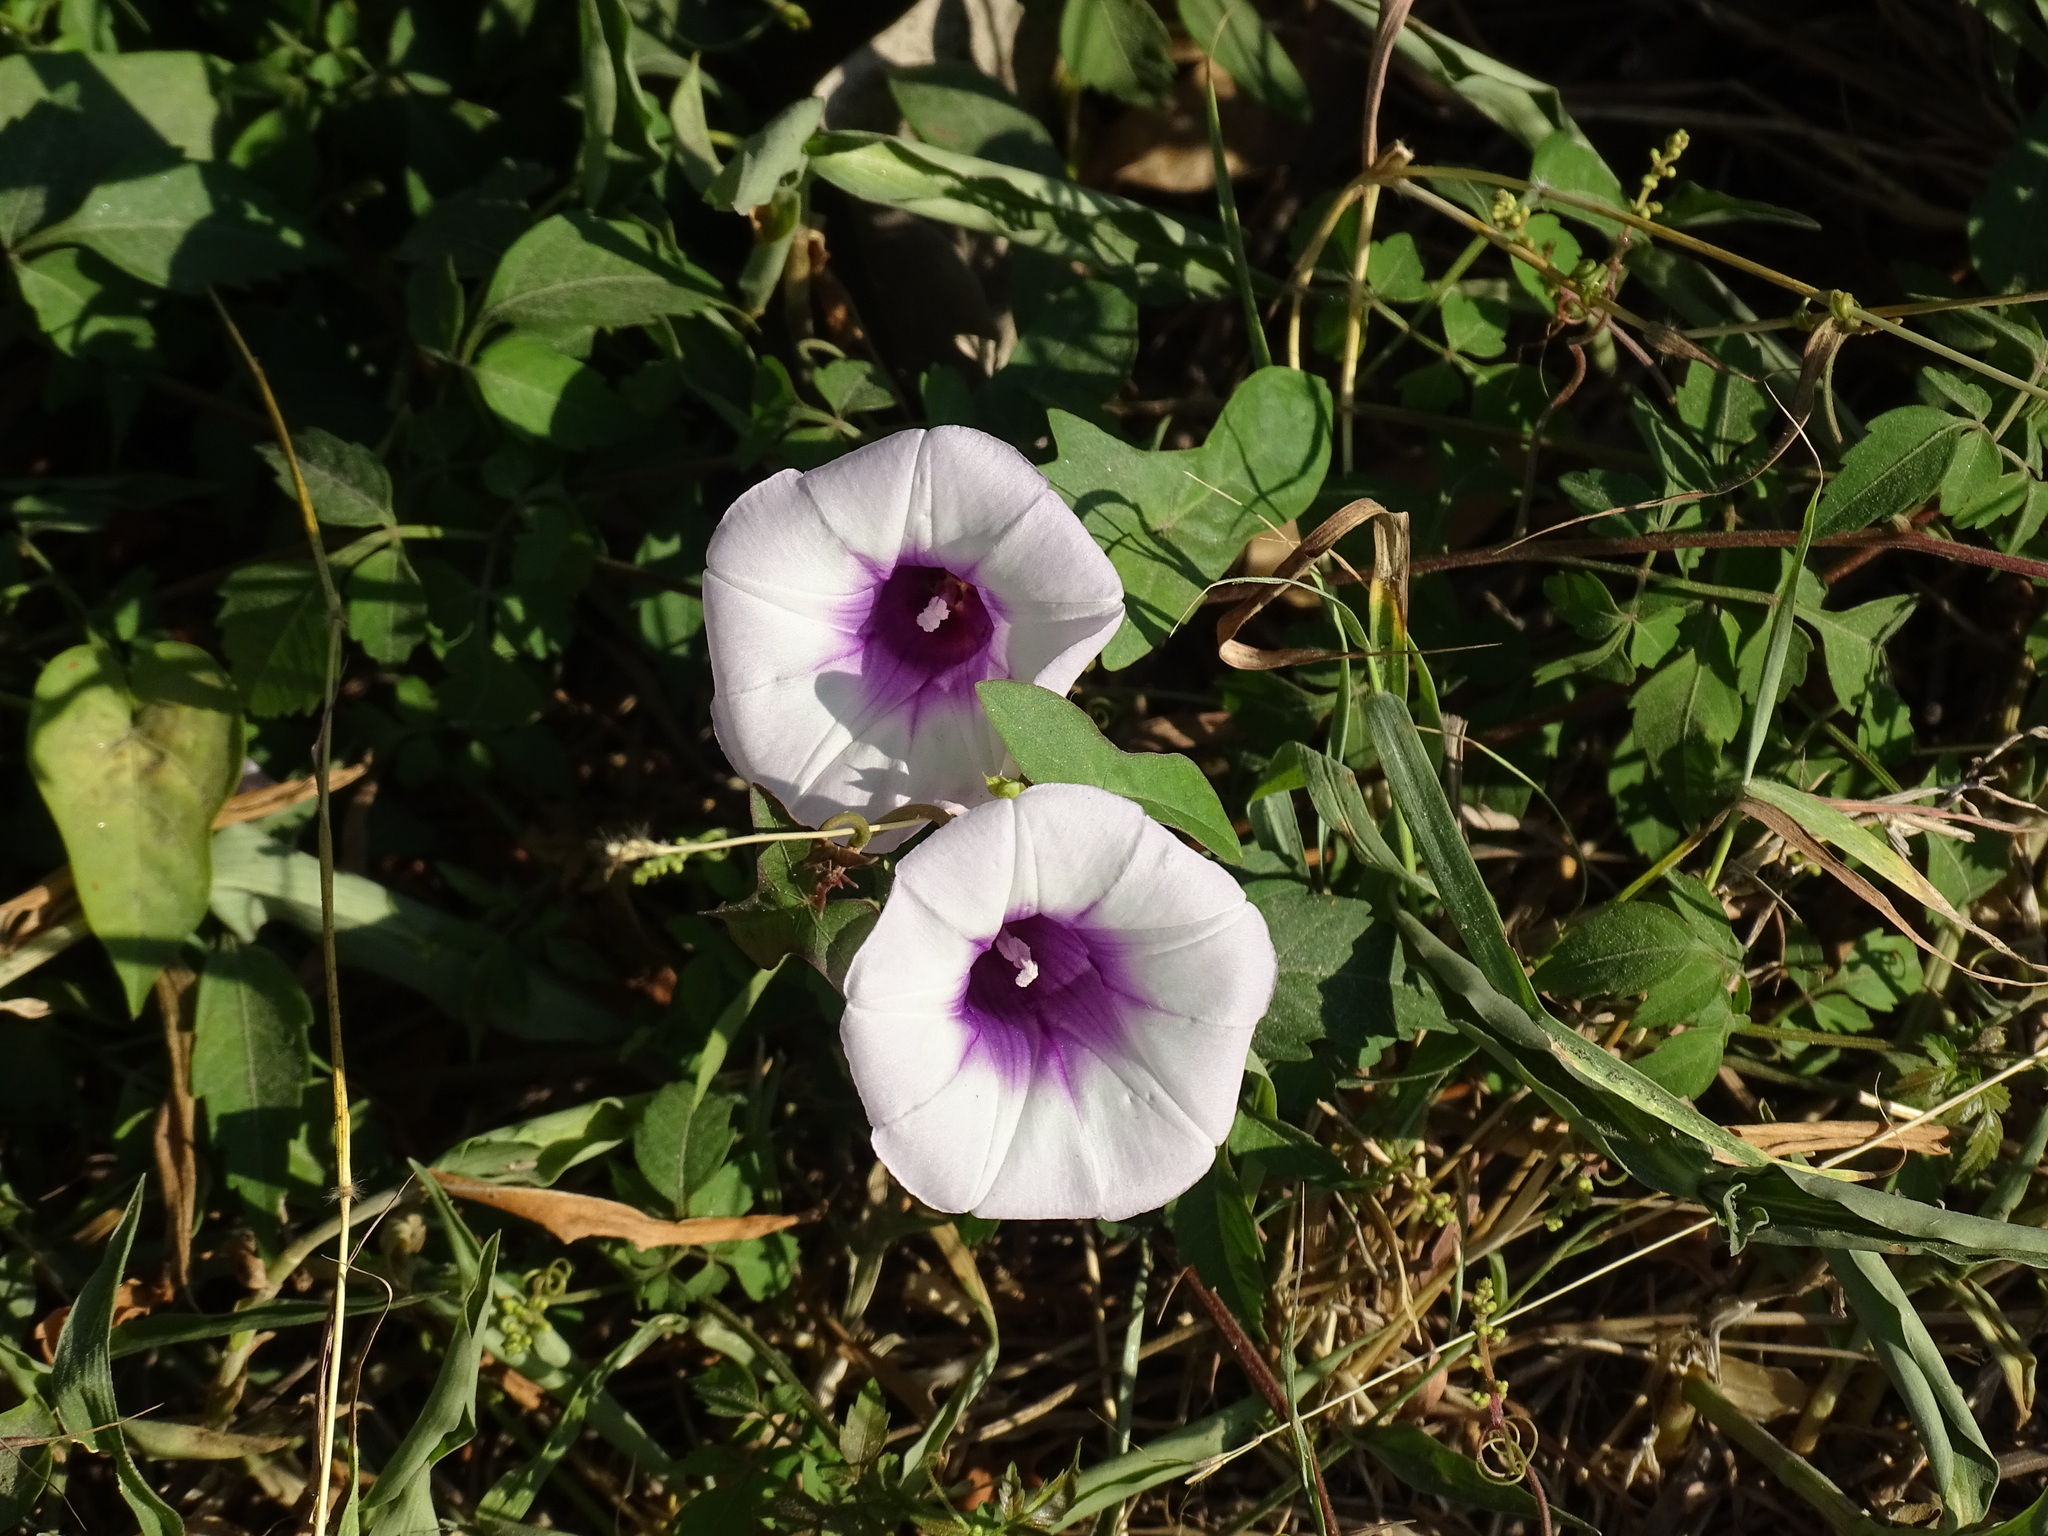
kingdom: Plantae
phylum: Tracheophyta
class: Magnoliopsida
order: Solanales
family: Convolvulaceae
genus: Ipomoea
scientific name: Ipomoea batatas
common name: Sweet-potato
